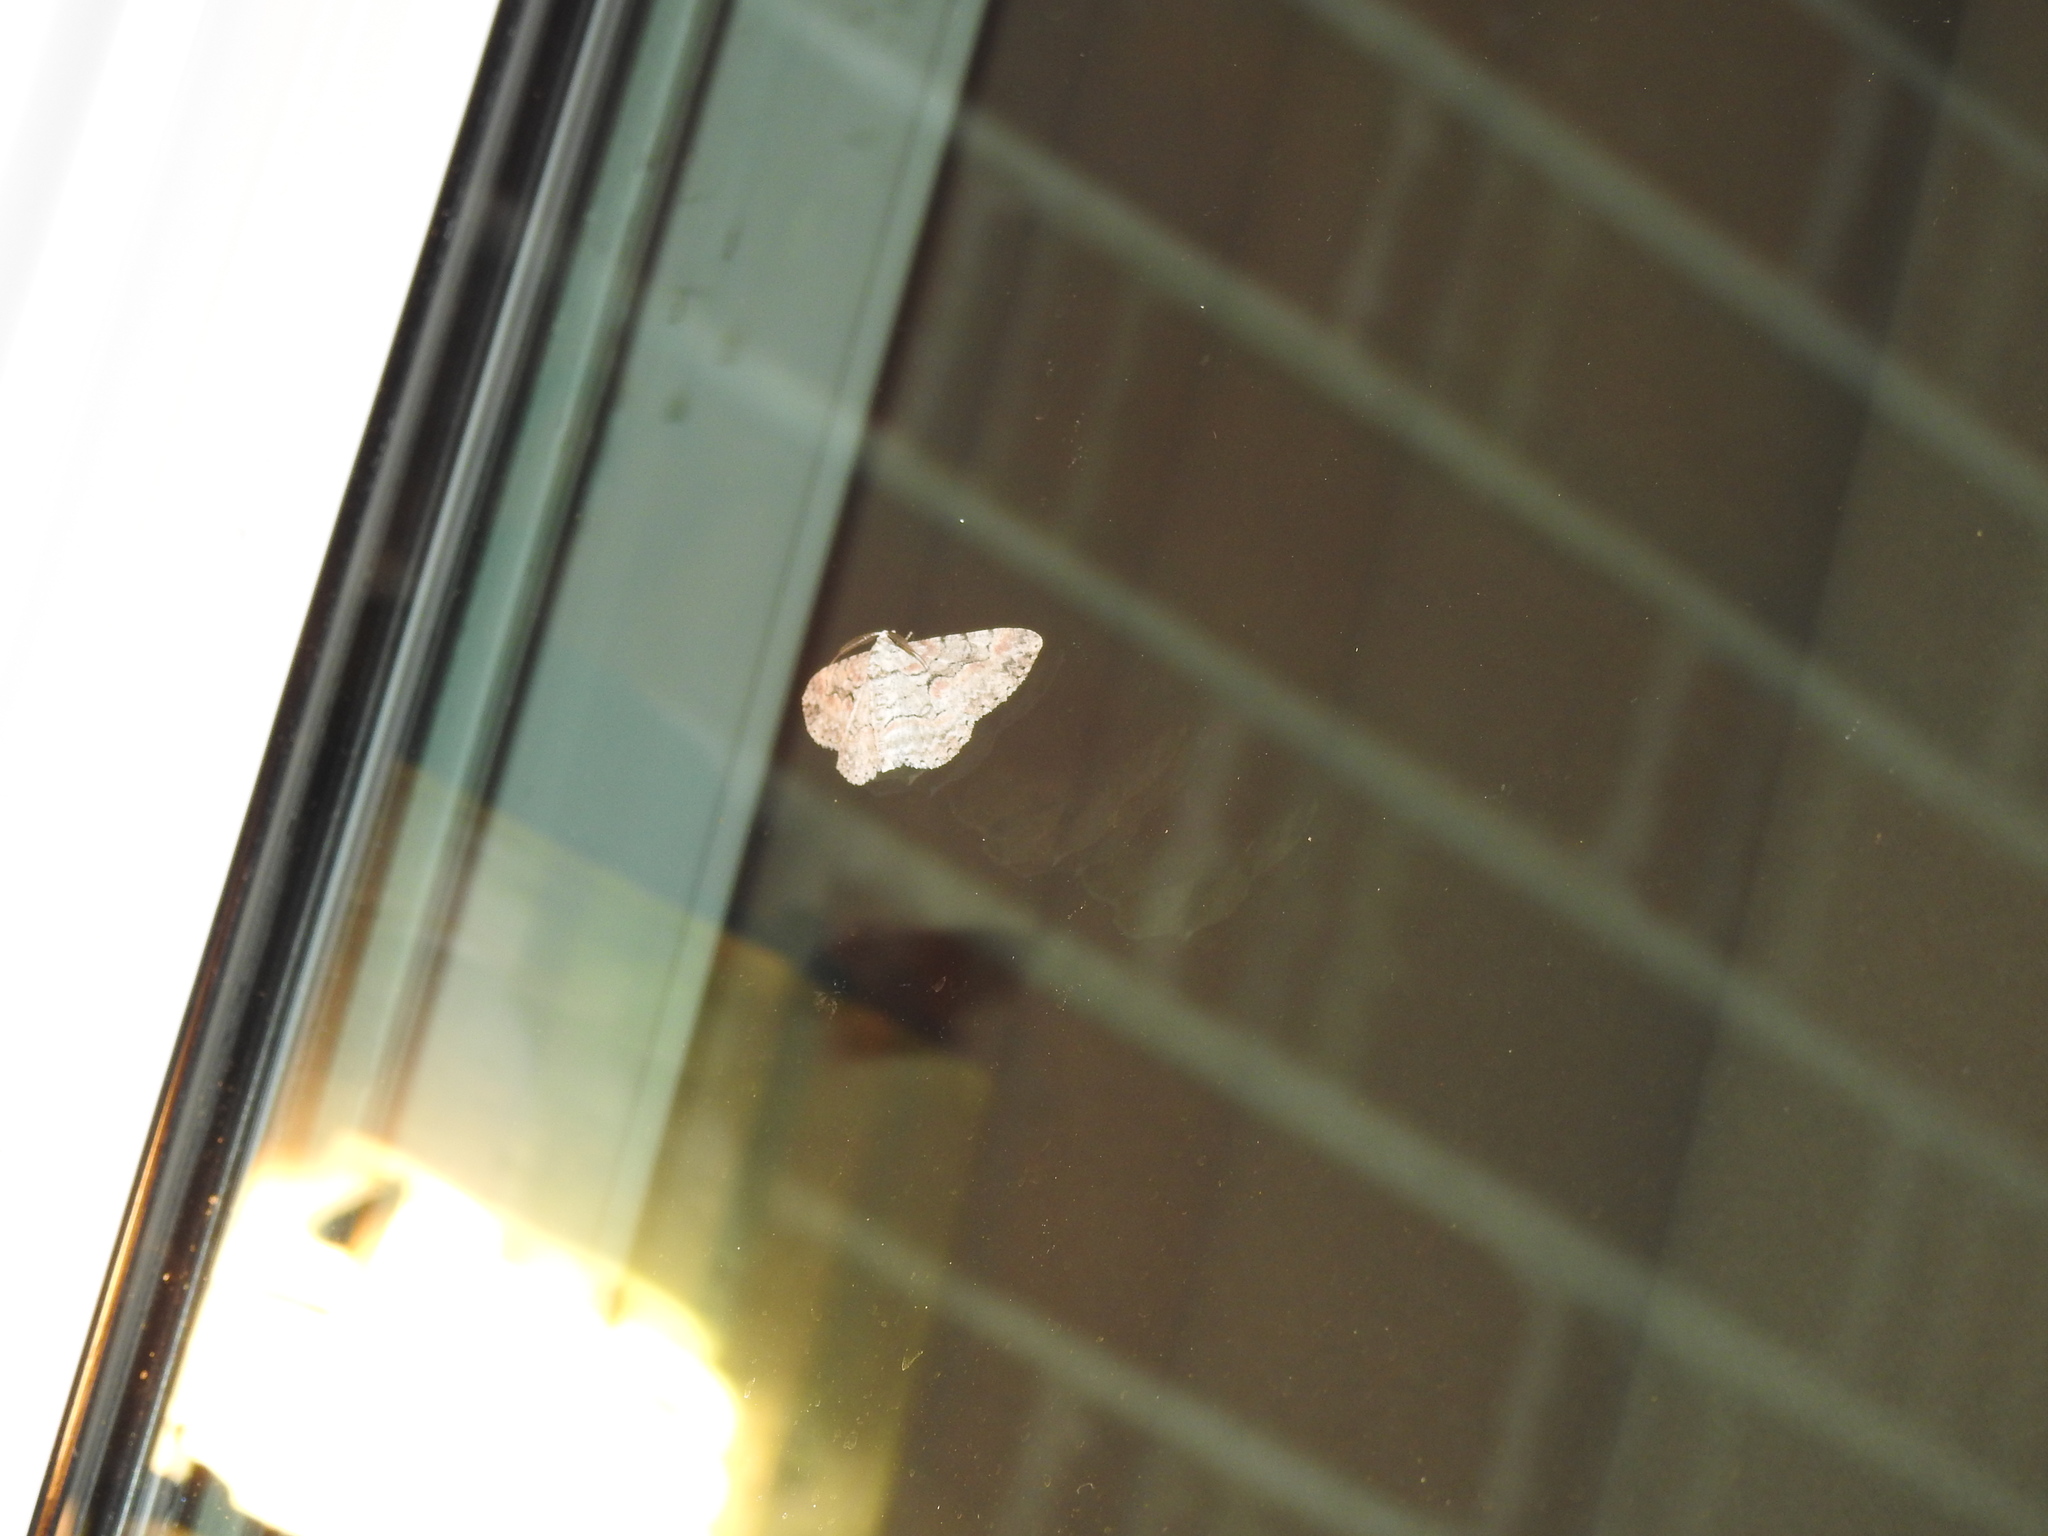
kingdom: Animalia
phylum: Arthropoda
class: Insecta
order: Lepidoptera
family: Geometridae
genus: Iridopsis
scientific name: Iridopsis defectaria
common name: Brown-shaded gray
